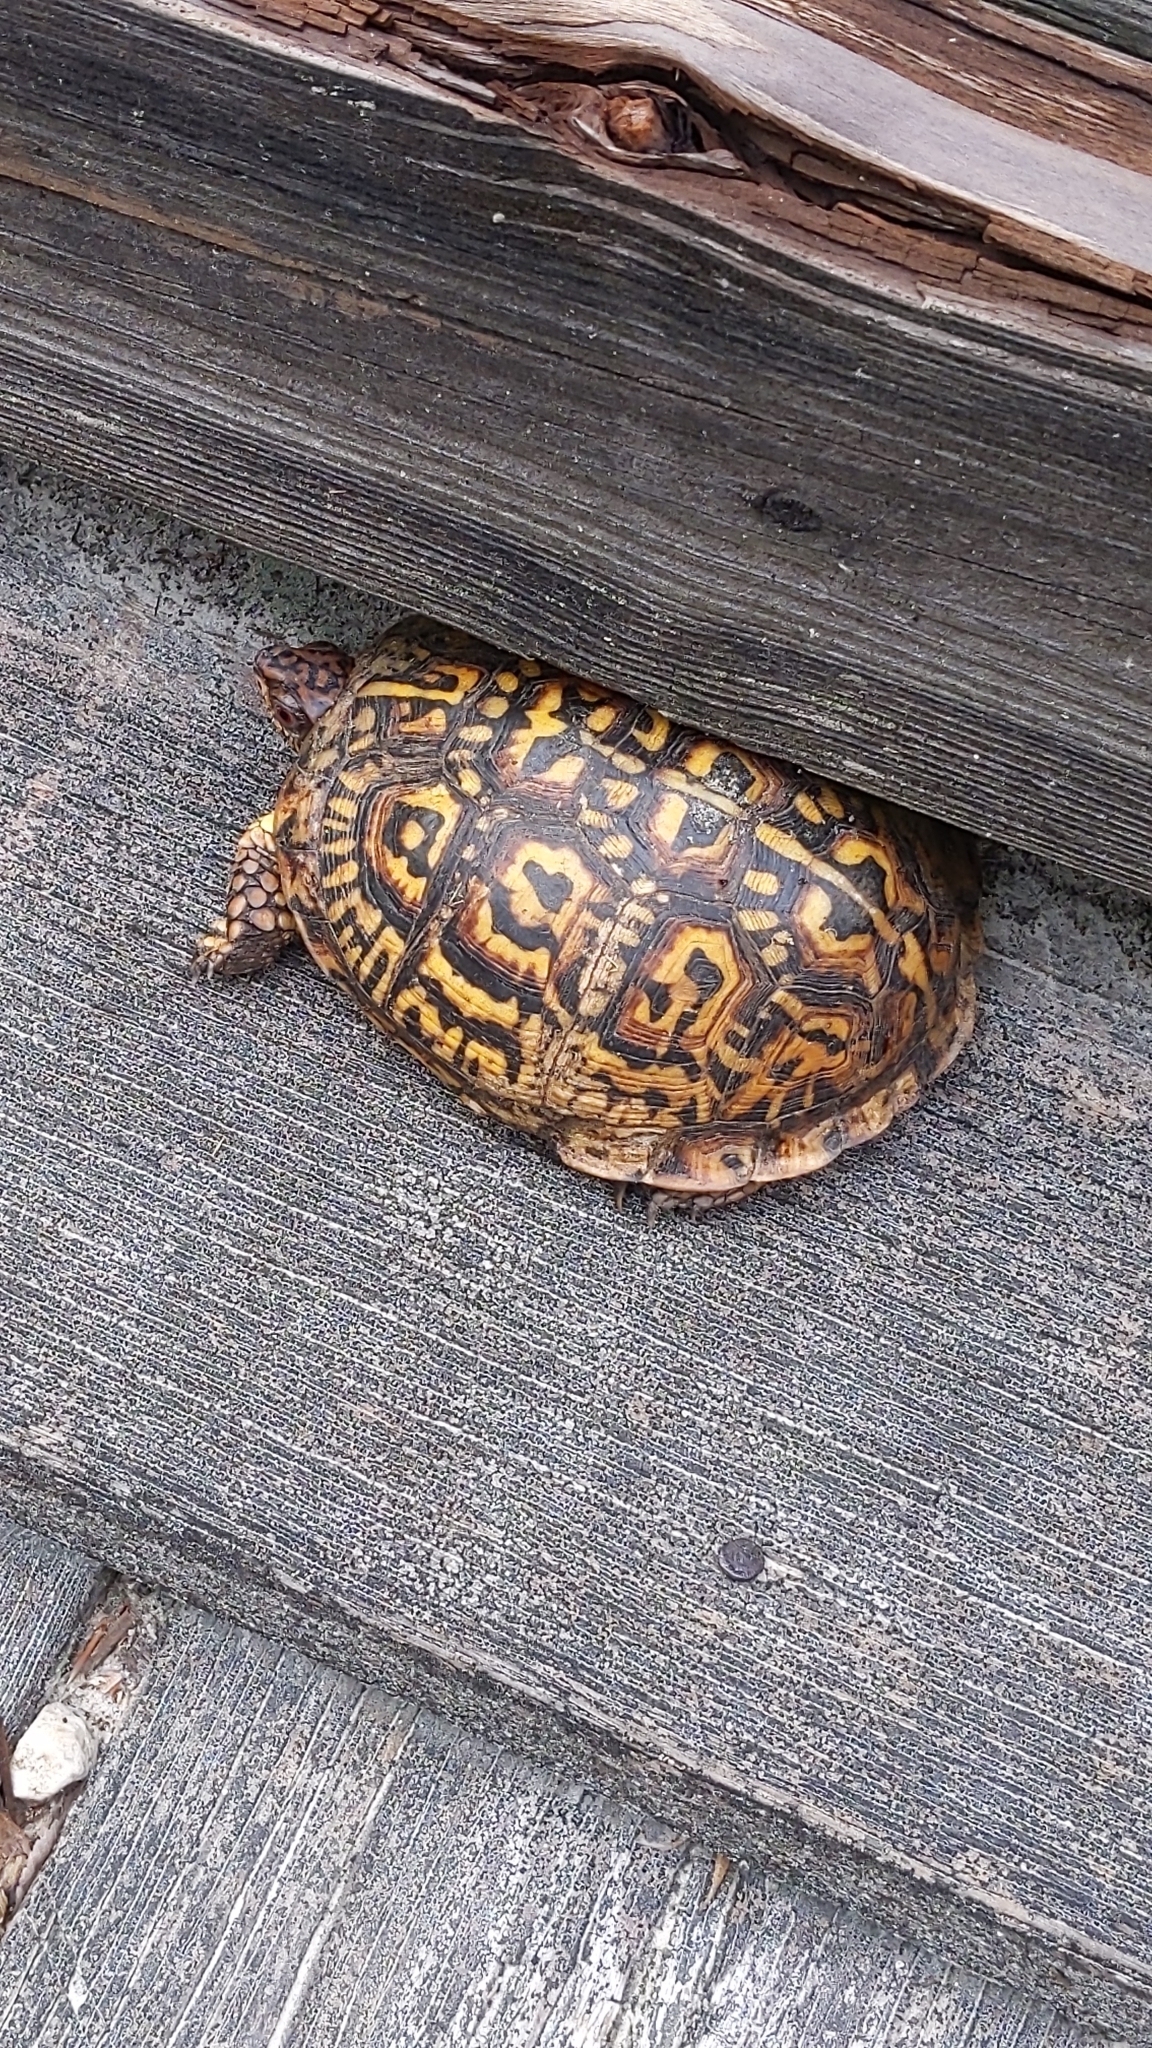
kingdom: Animalia
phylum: Chordata
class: Testudines
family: Emydidae
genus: Terrapene
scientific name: Terrapene carolina
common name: Common box turtle
